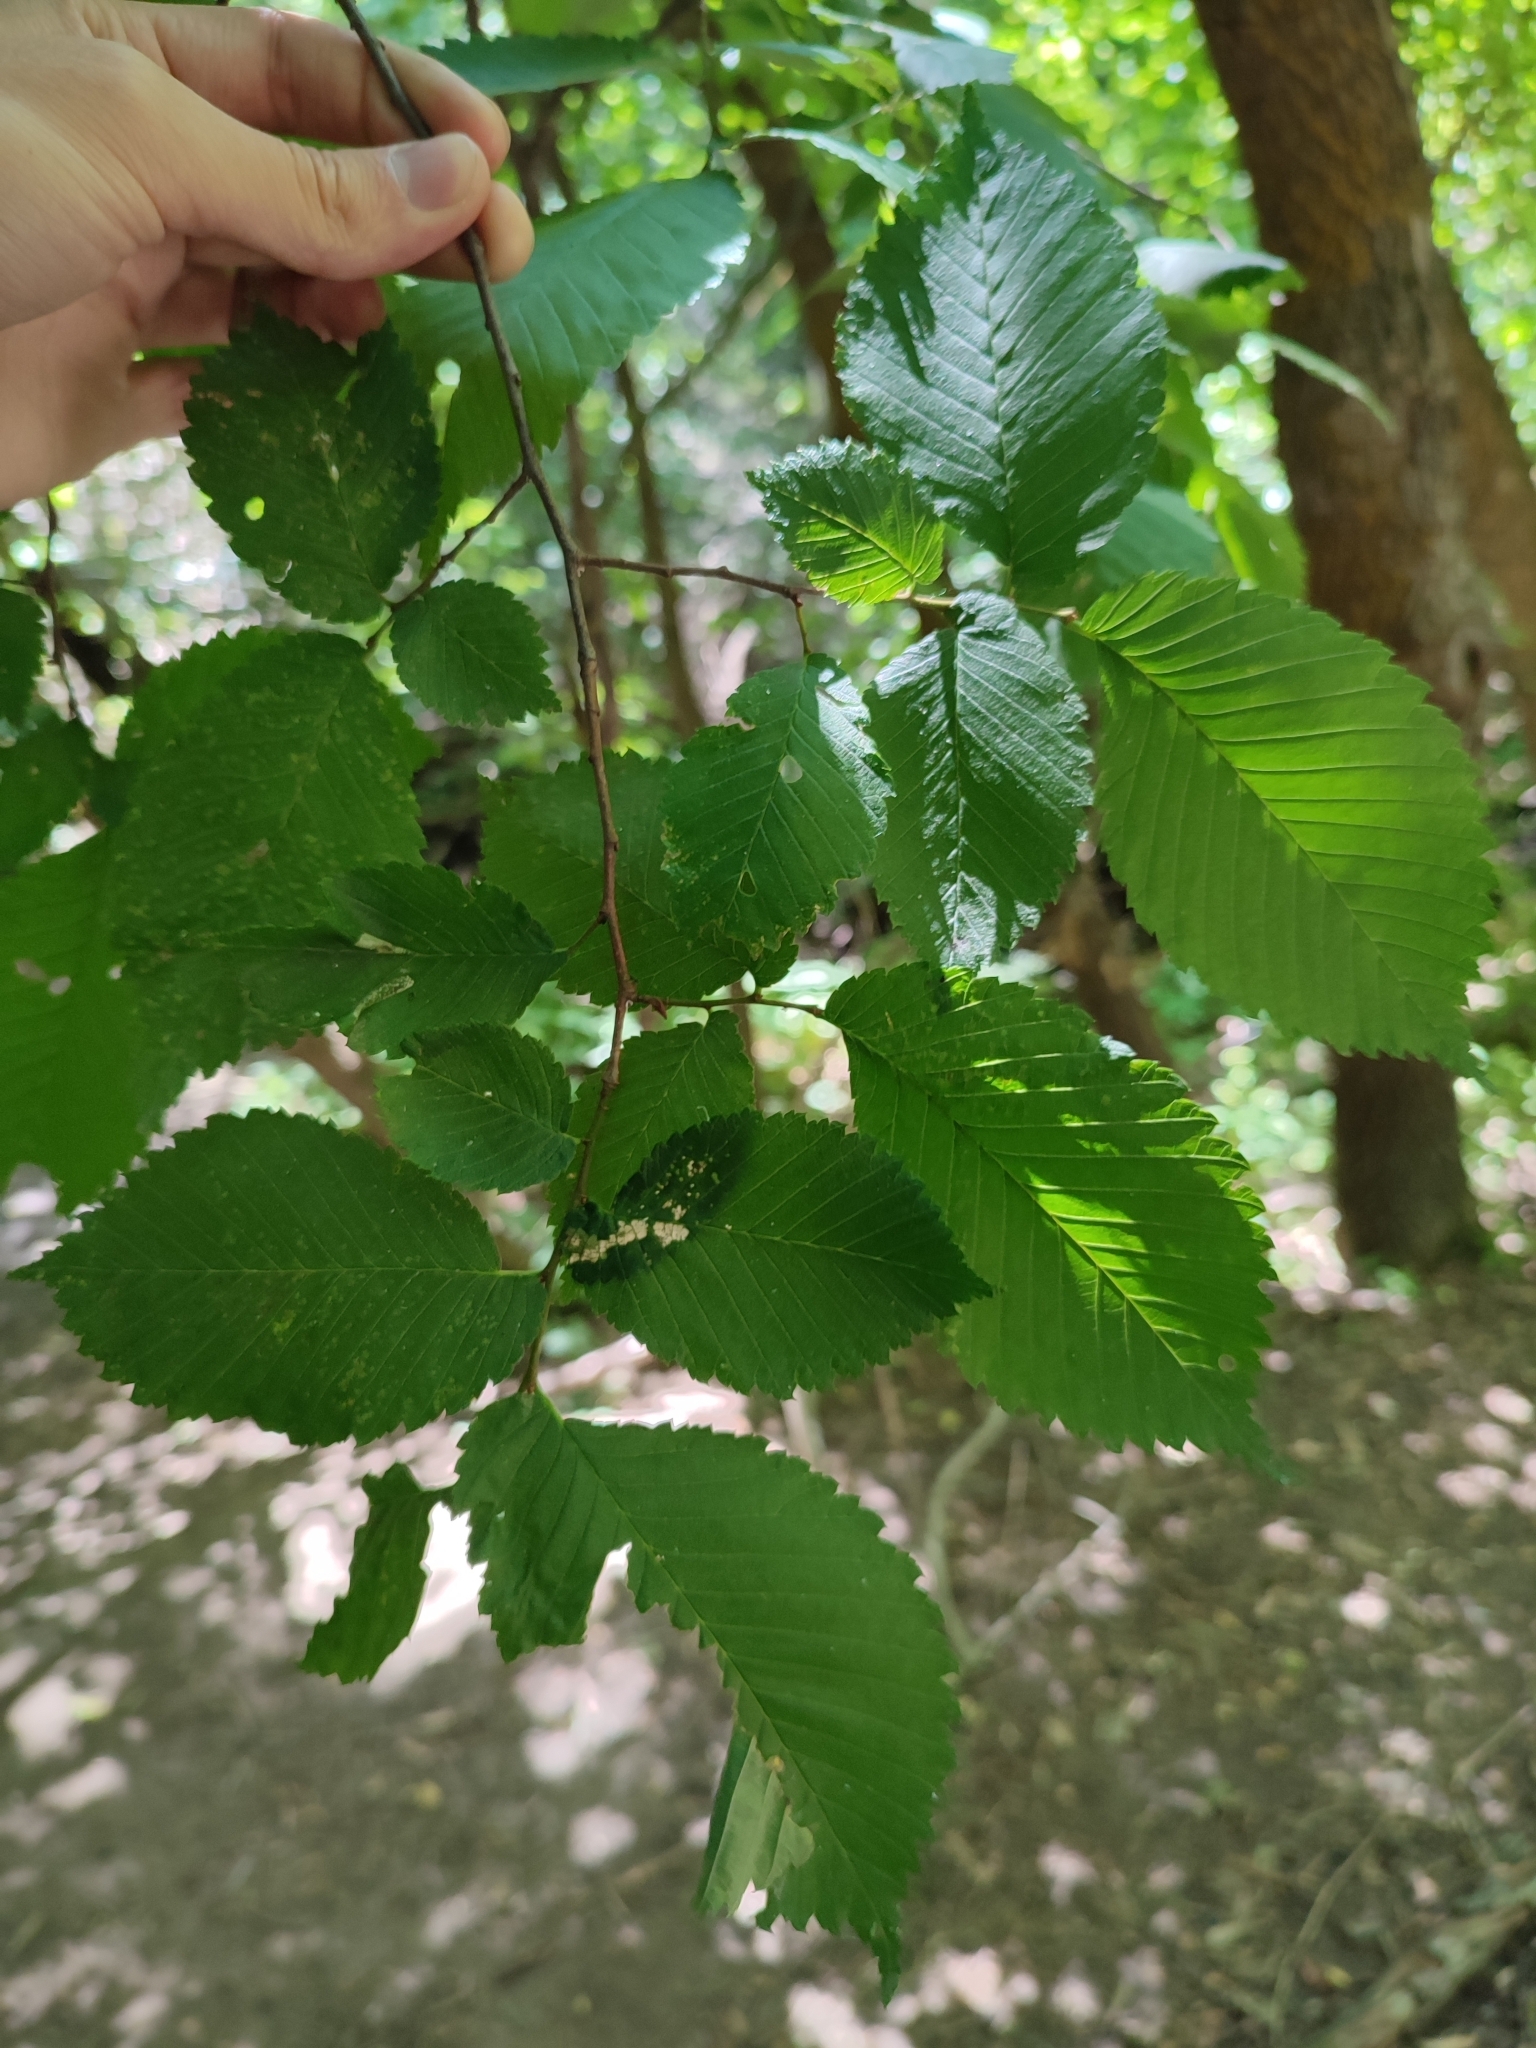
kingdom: Plantae
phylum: Tracheophyta
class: Magnoliopsida
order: Rosales
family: Ulmaceae
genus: Ulmus
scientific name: Ulmus laevis
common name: European white-elm
